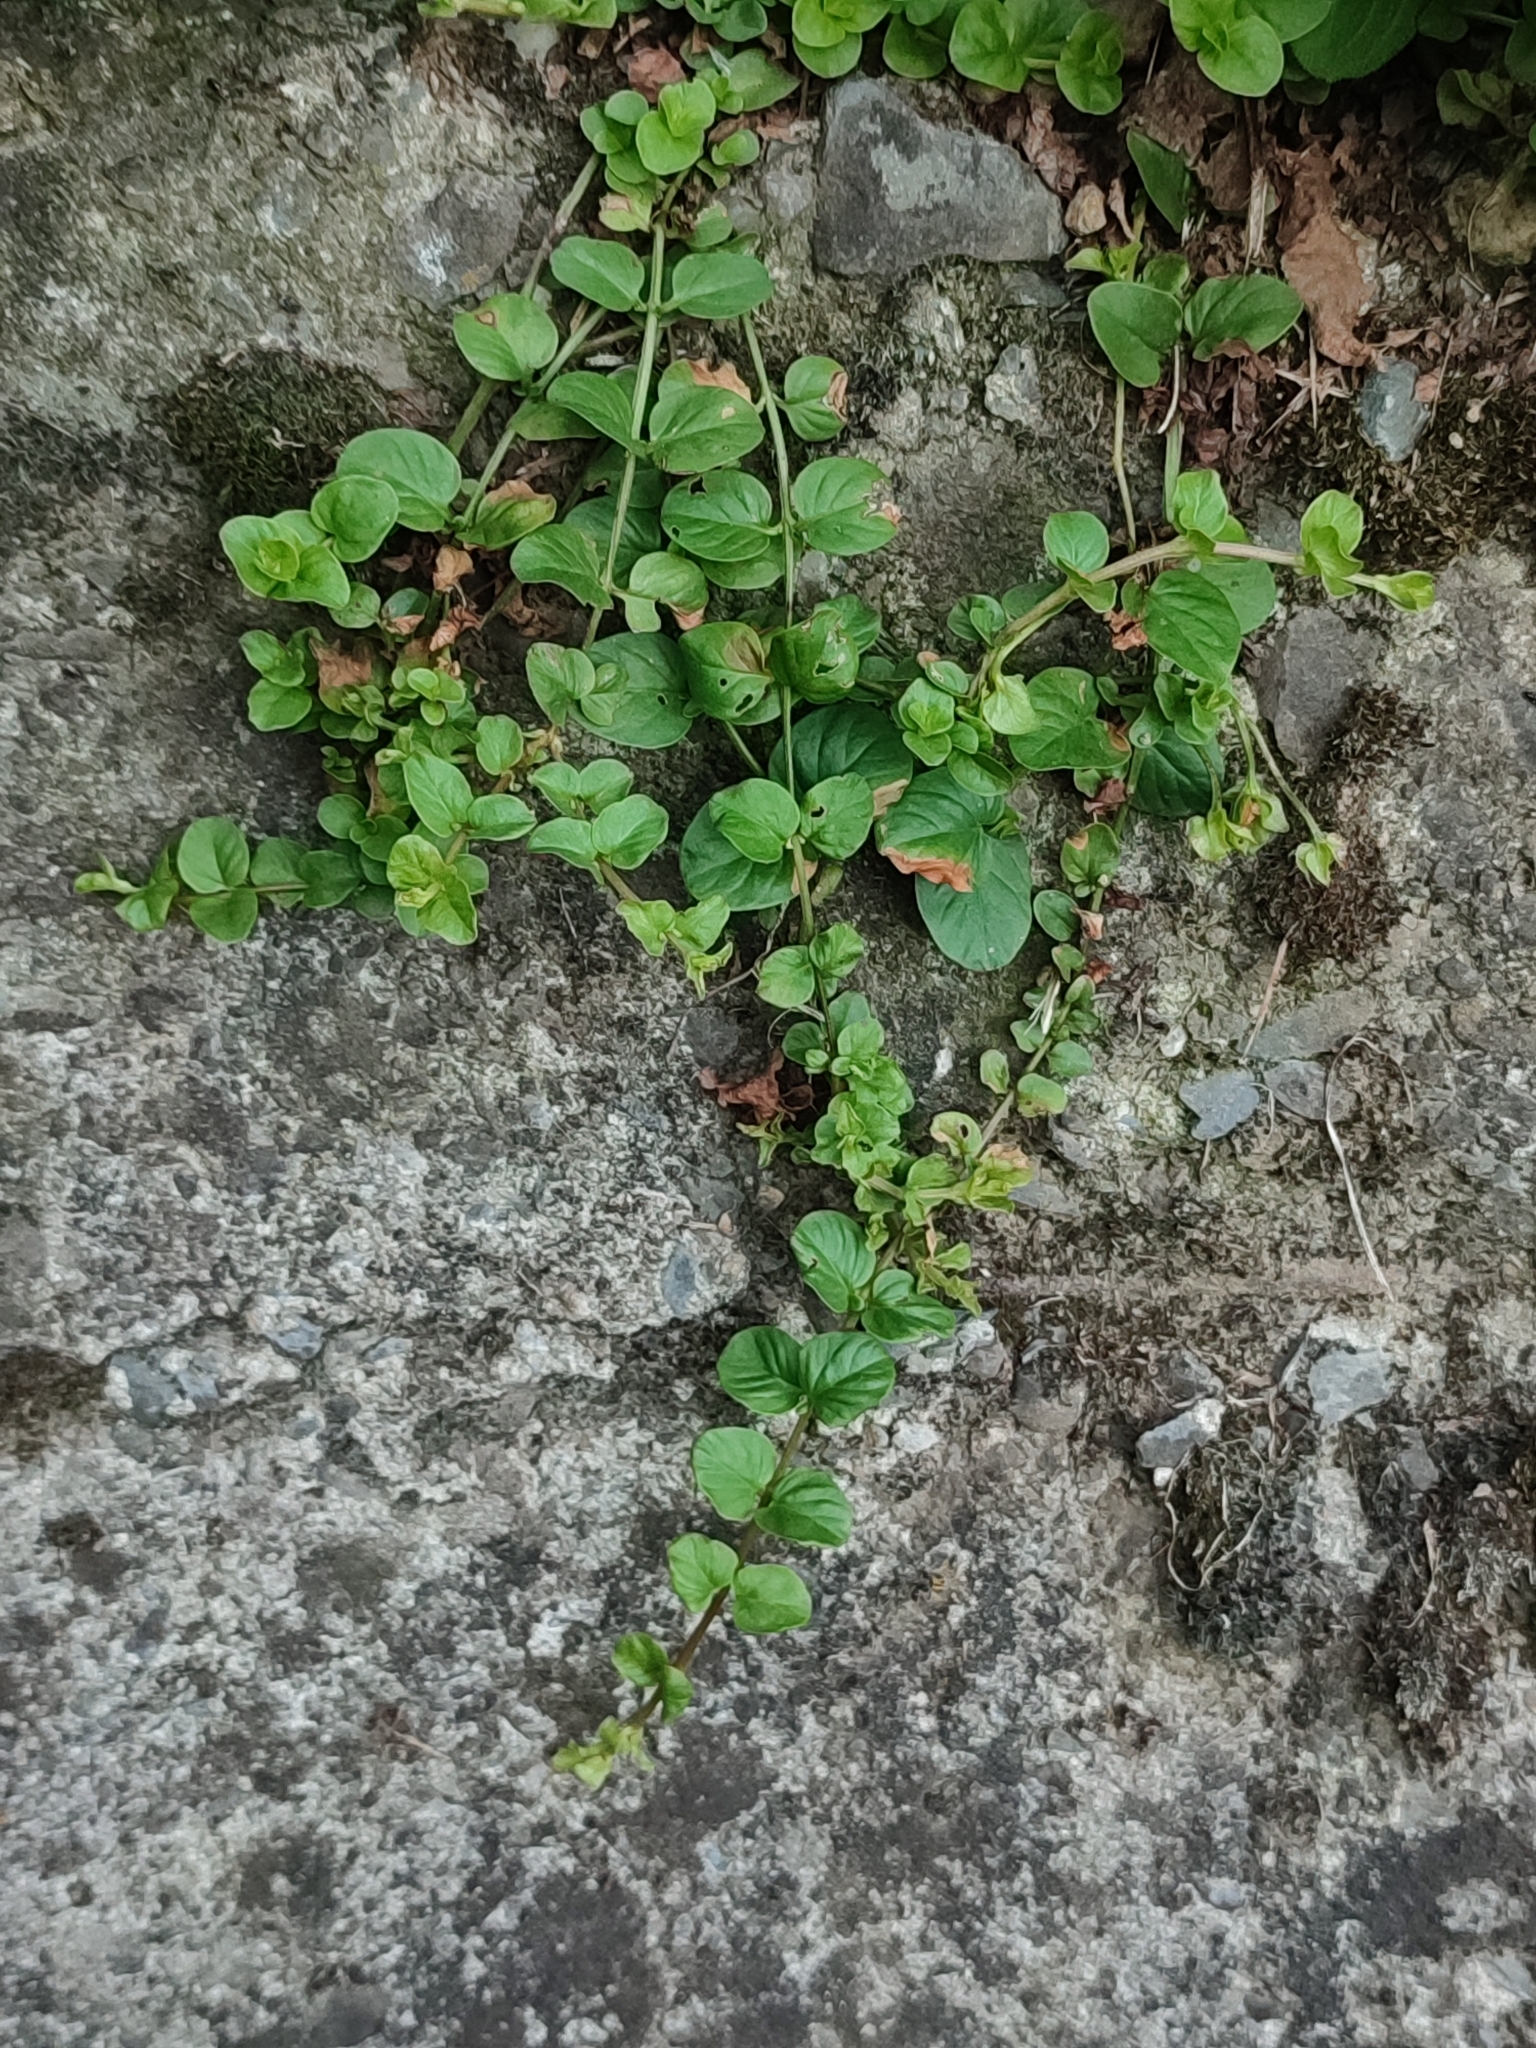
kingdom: Plantae
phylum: Tracheophyta
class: Magnoliopsida
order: Ericales
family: Primulaceae
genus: Lysimachia
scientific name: Lysimachia nummularia
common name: Moneywort
